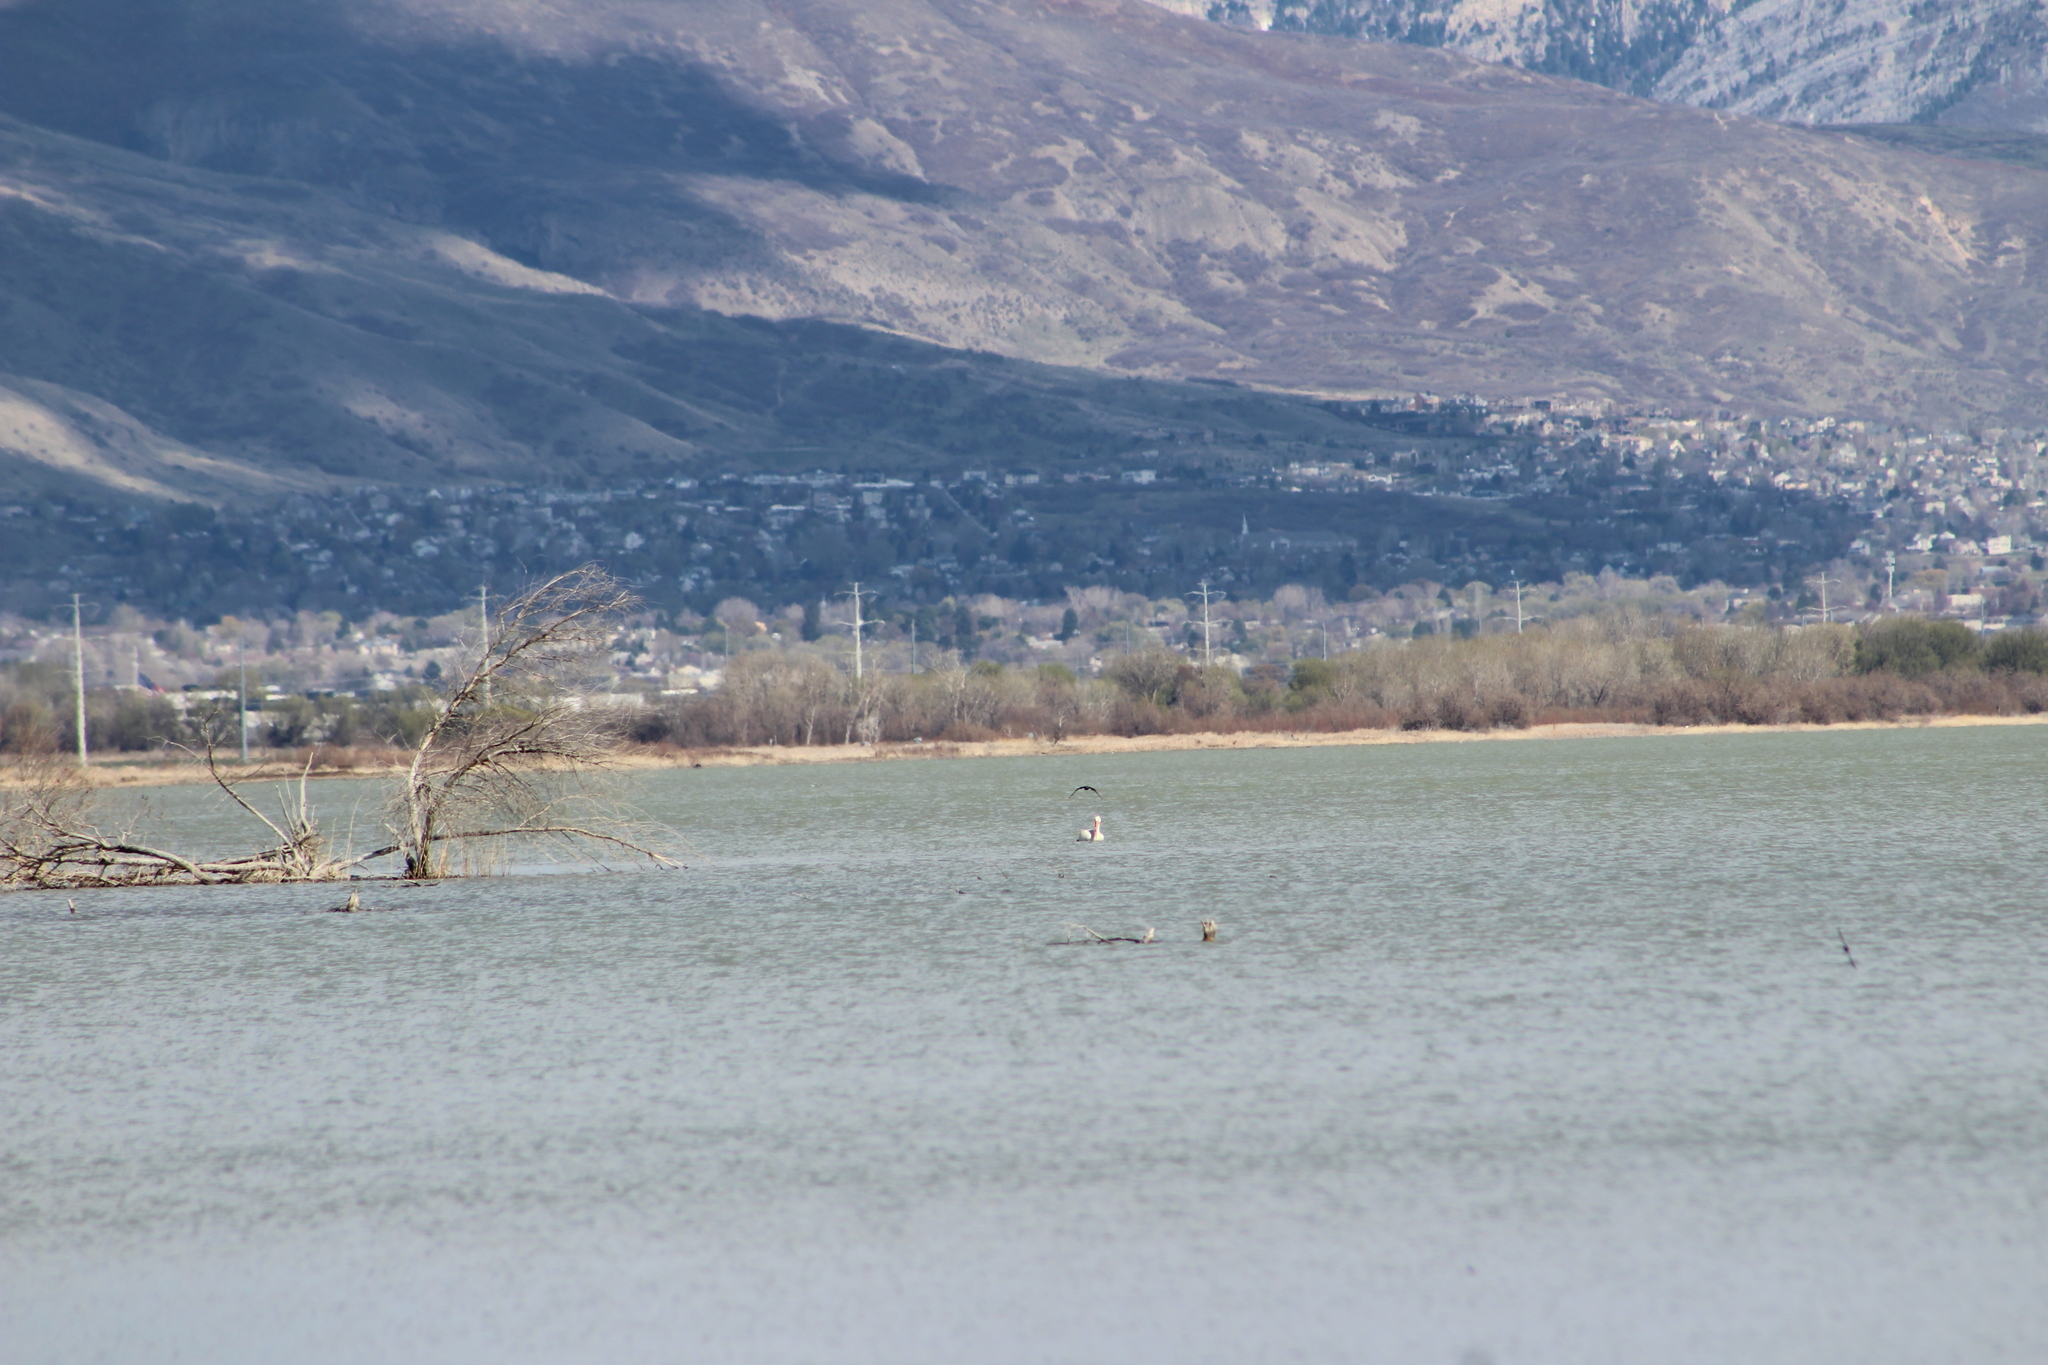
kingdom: Animalia
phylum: Chordata
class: Aves
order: Pelecaniformes
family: Pelecanidae
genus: Pelecanus
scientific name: Pelecanus erythrorhynchos
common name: American white pelican
